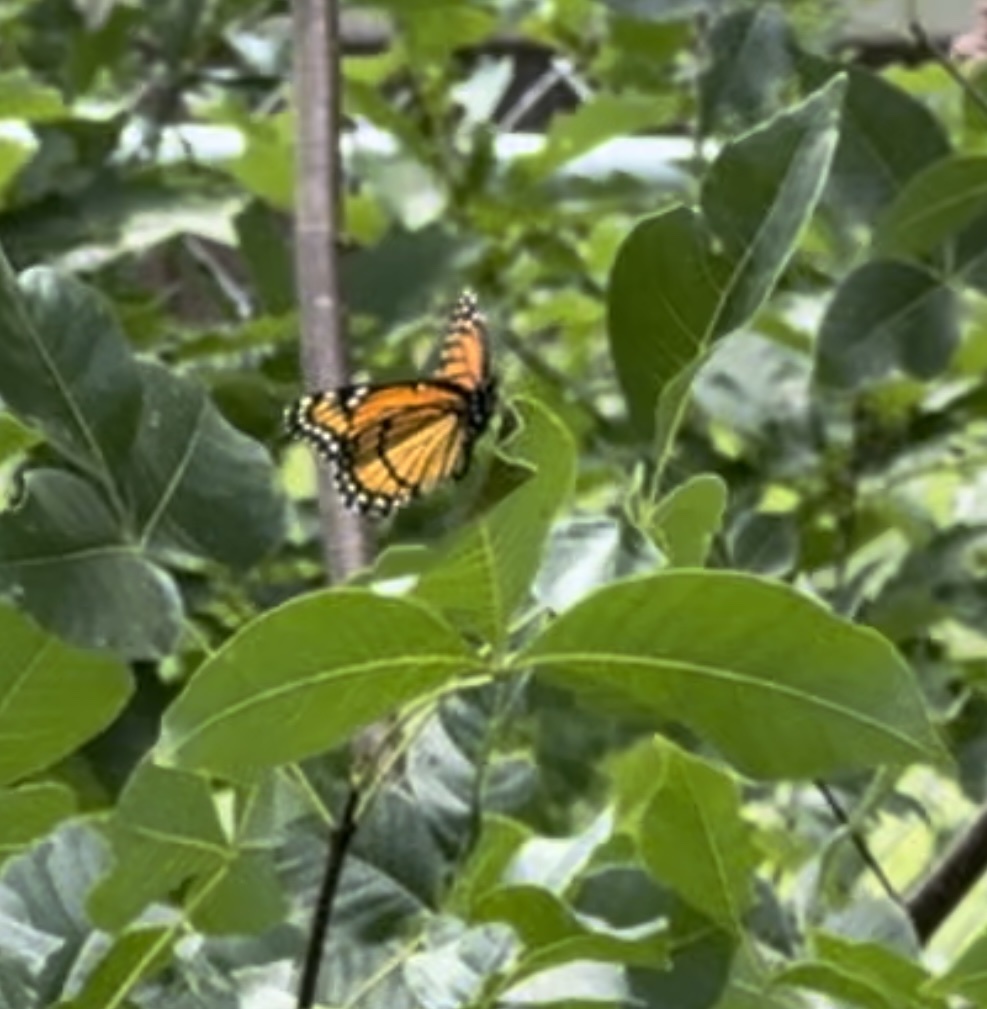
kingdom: Animalia
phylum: Arthropoda
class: Insecta
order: Lepidoptera
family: Nymphalidae
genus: Limenitis
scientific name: Limenitis archippus
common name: Viceroy
